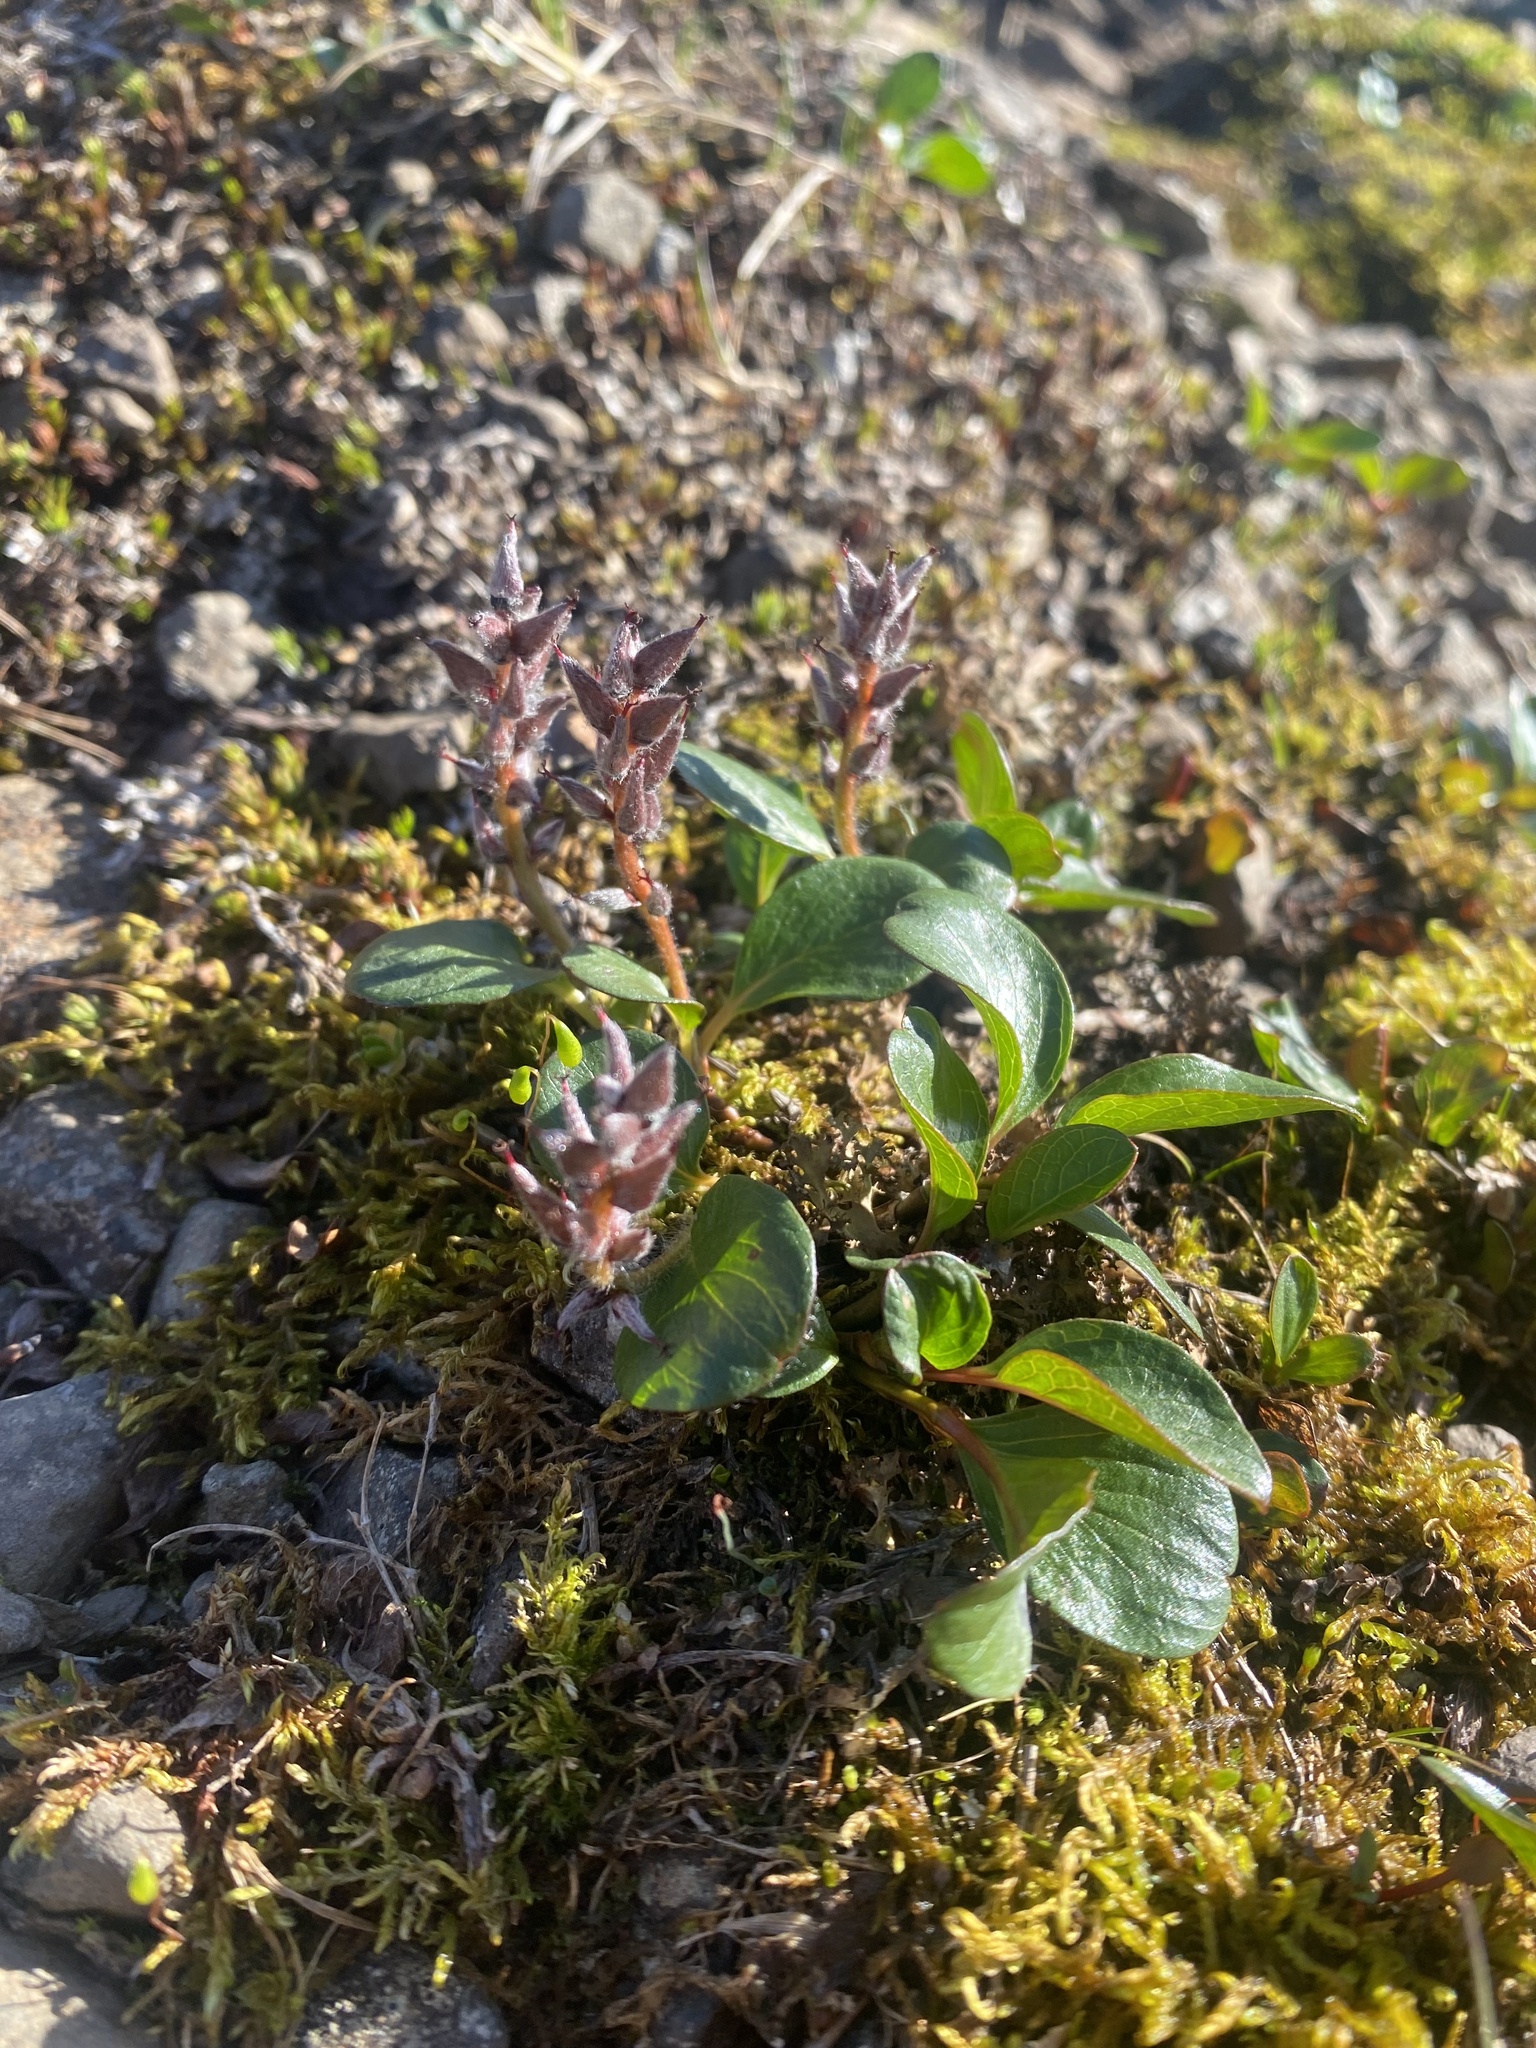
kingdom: Plantae
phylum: Tracheophyta
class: Magnoliopsida
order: Malpighiales
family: Salicaceae
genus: Salix
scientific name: Salix polaris
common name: Polar willow
